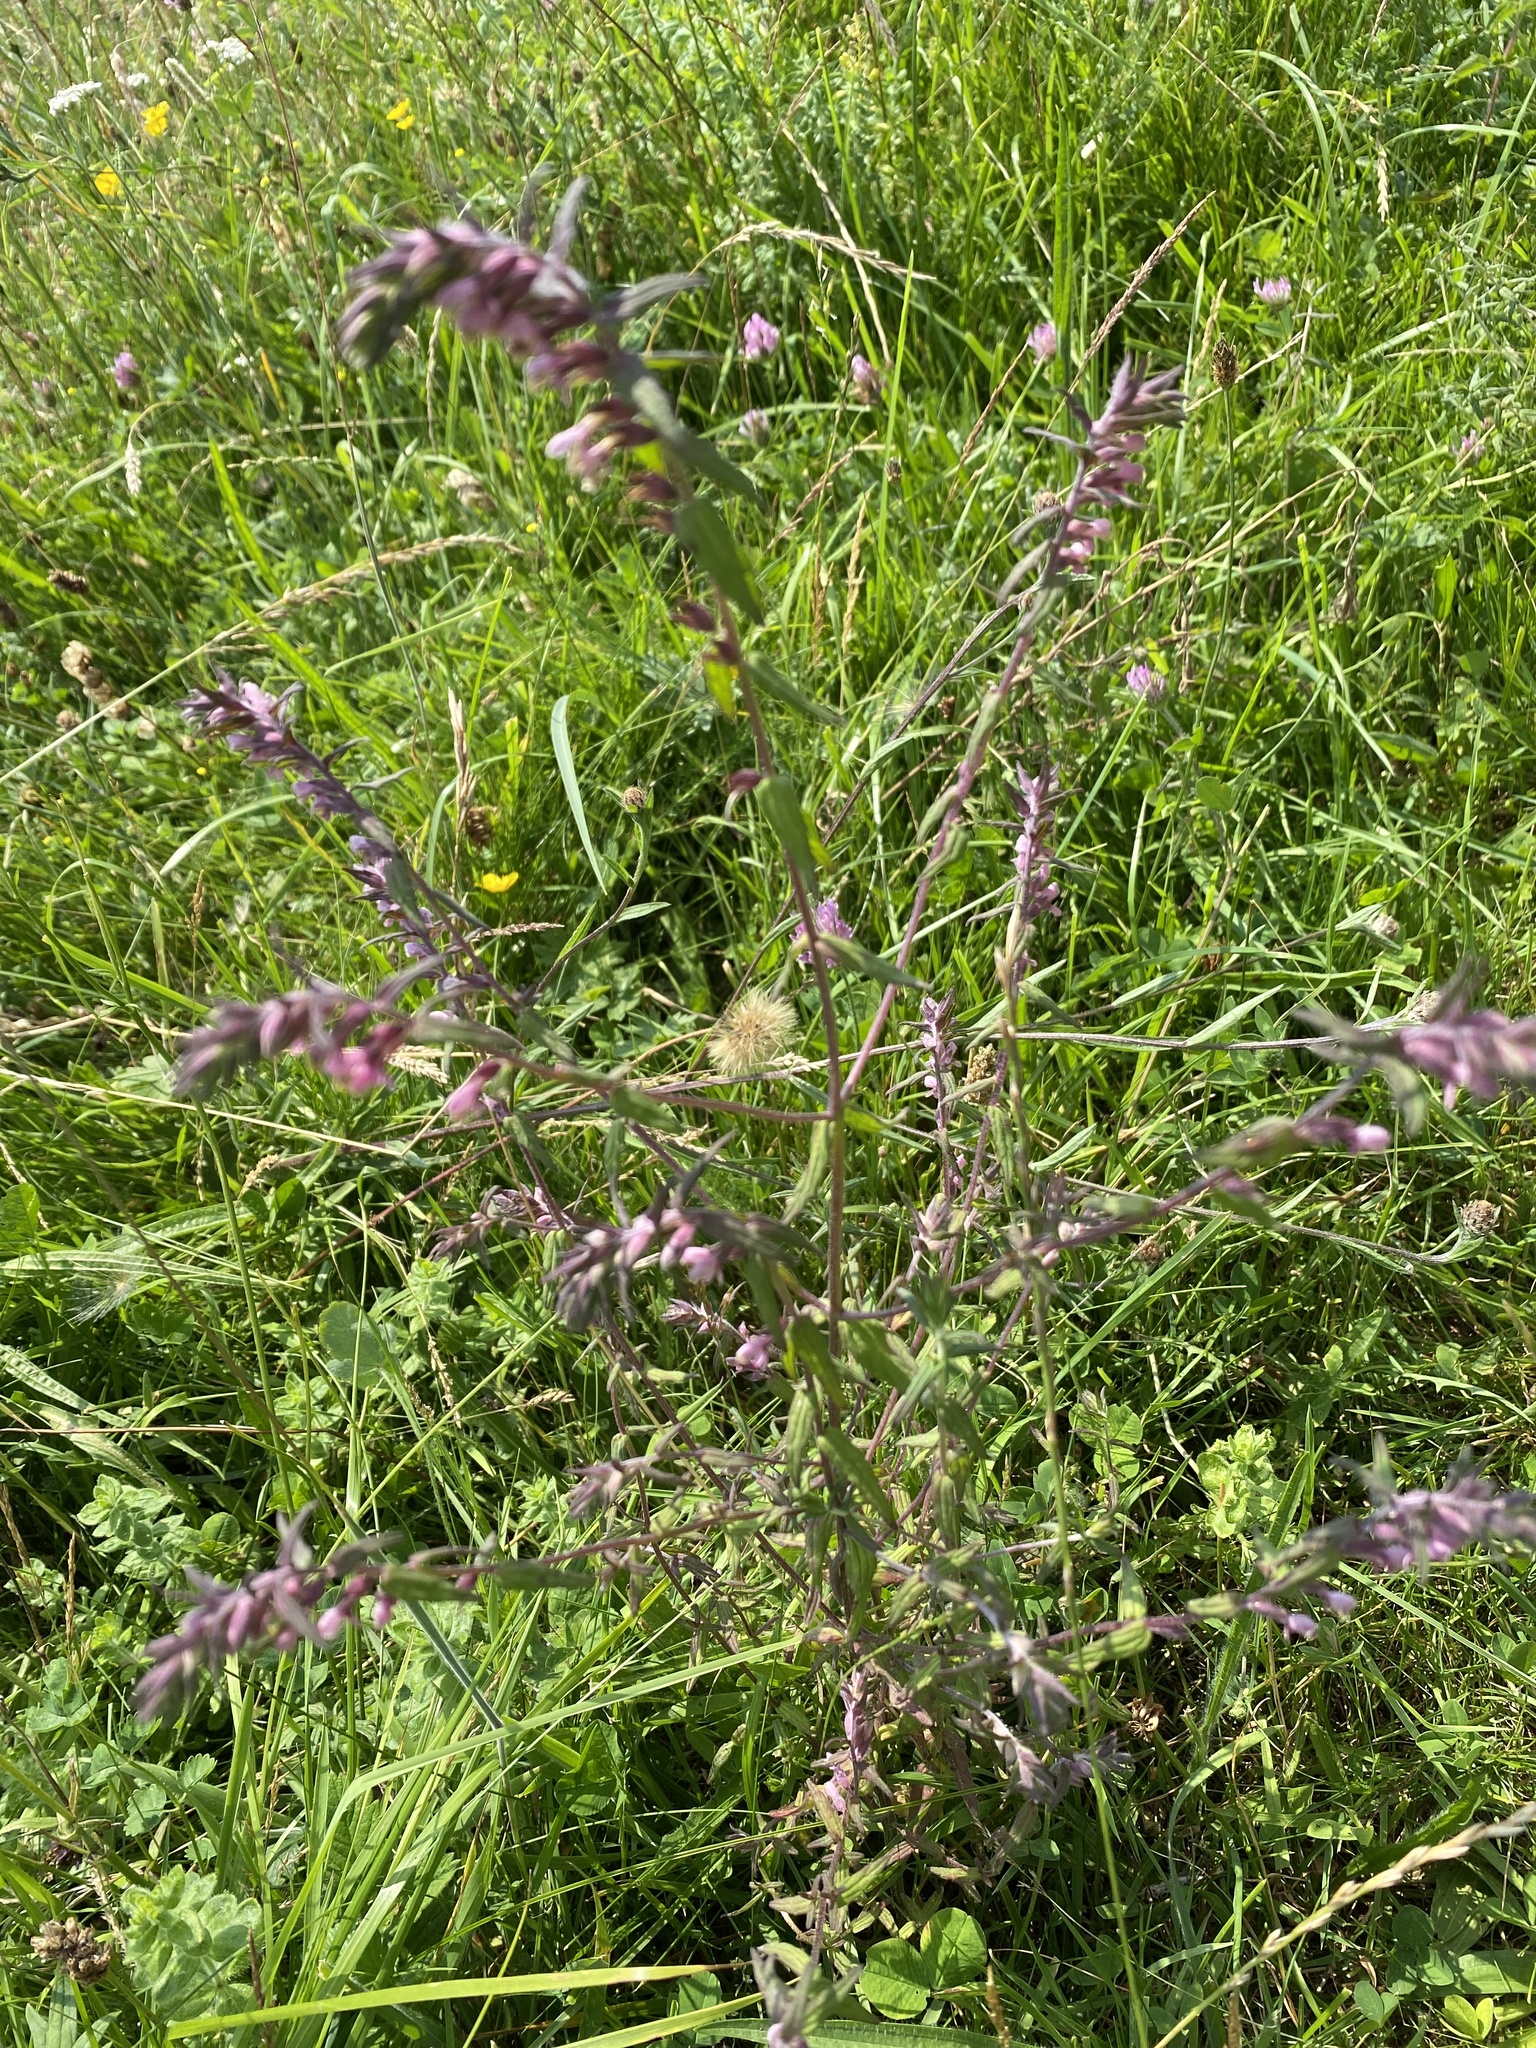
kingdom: Plantae
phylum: Tracheophyta
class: Magnoliopsida
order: Lamiales
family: Orobanchaceae
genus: Odontites
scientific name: Odontites vulgaris
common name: Broomrape
